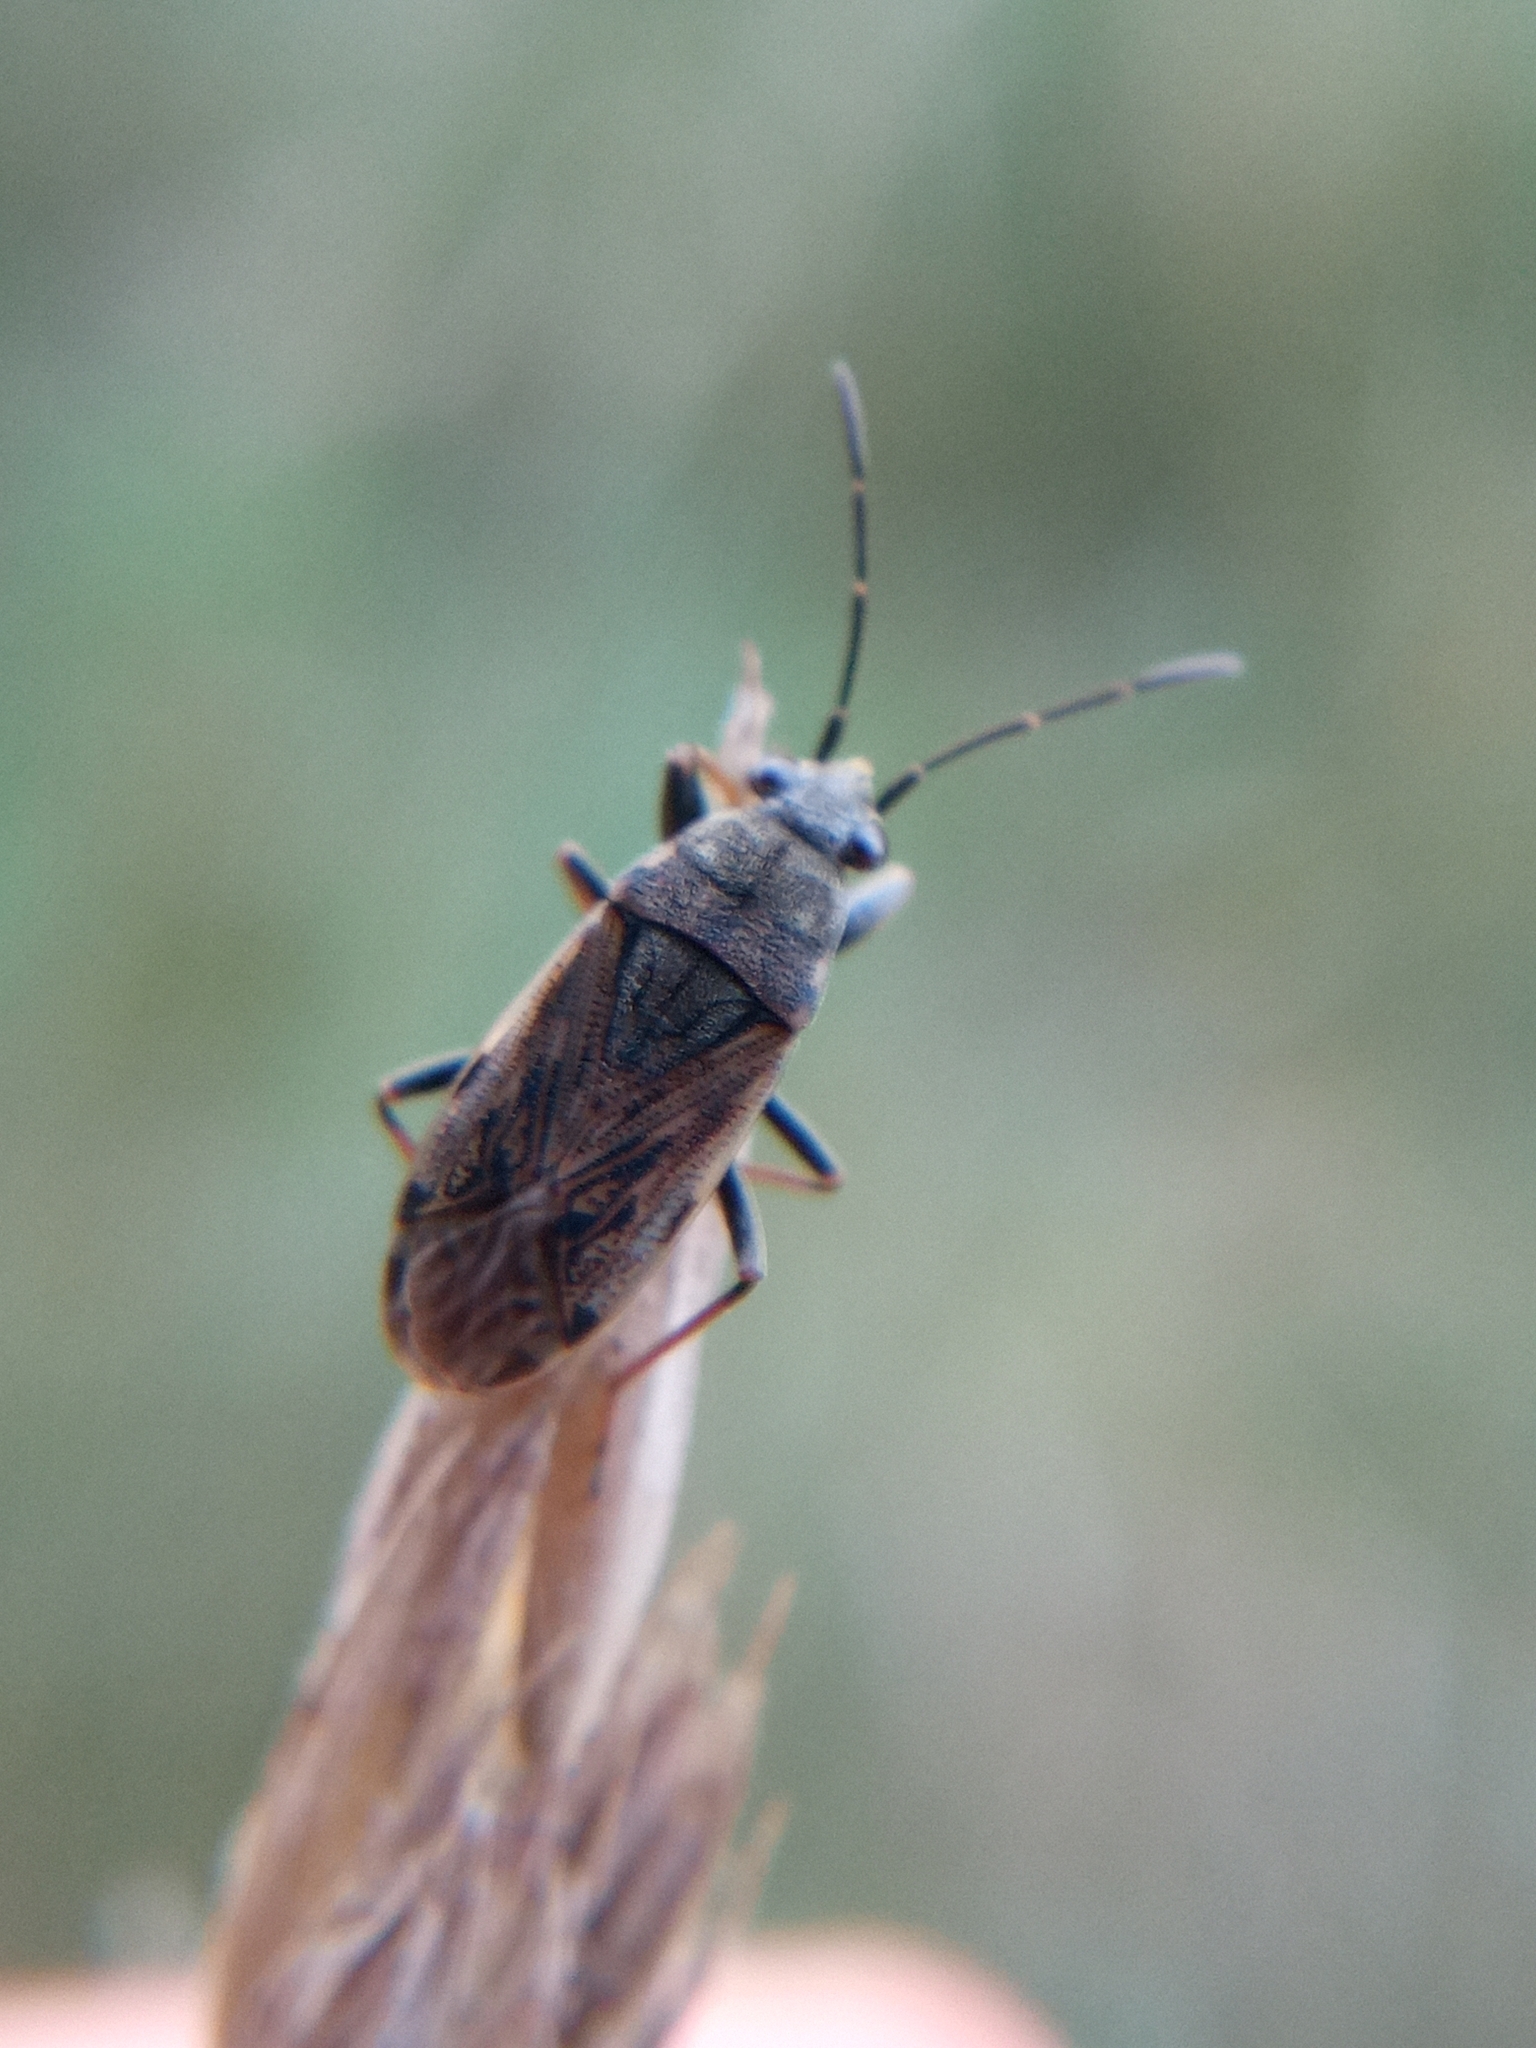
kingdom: Animalia
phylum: Arthropoda
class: Insecta
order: Hemiptera
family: Rhyparochromidae
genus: Peritrechus
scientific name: Peritrechus gracilicornis
